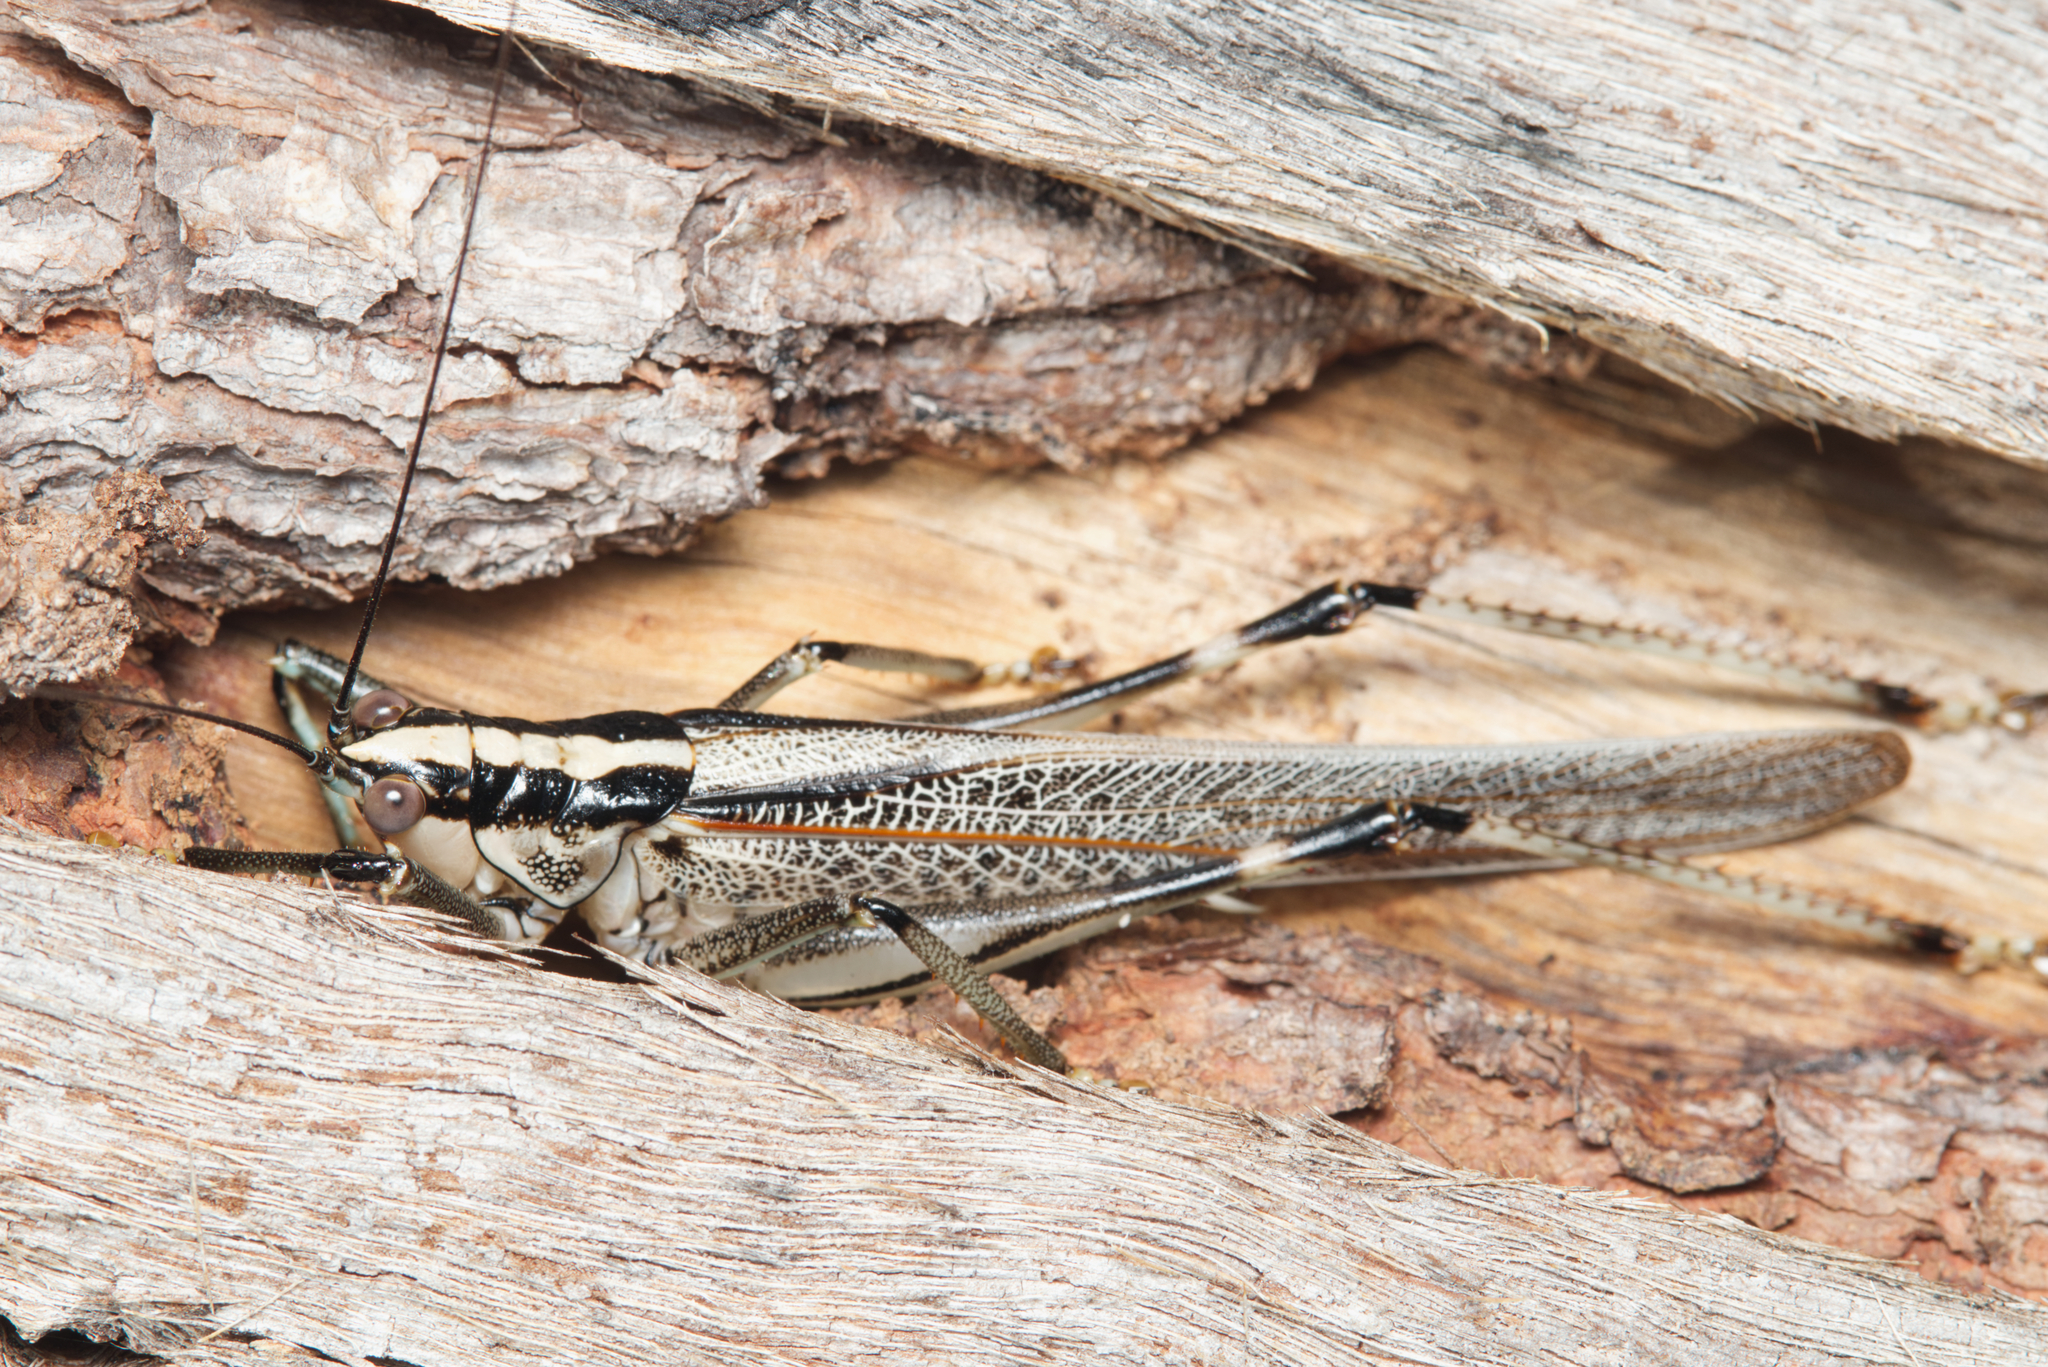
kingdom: Animalia
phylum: Arthropoda
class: Insecta
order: Orthoptera
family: Tettigoniidae
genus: Nicsara
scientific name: Nicsara bifasciata
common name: Striped nicsara
